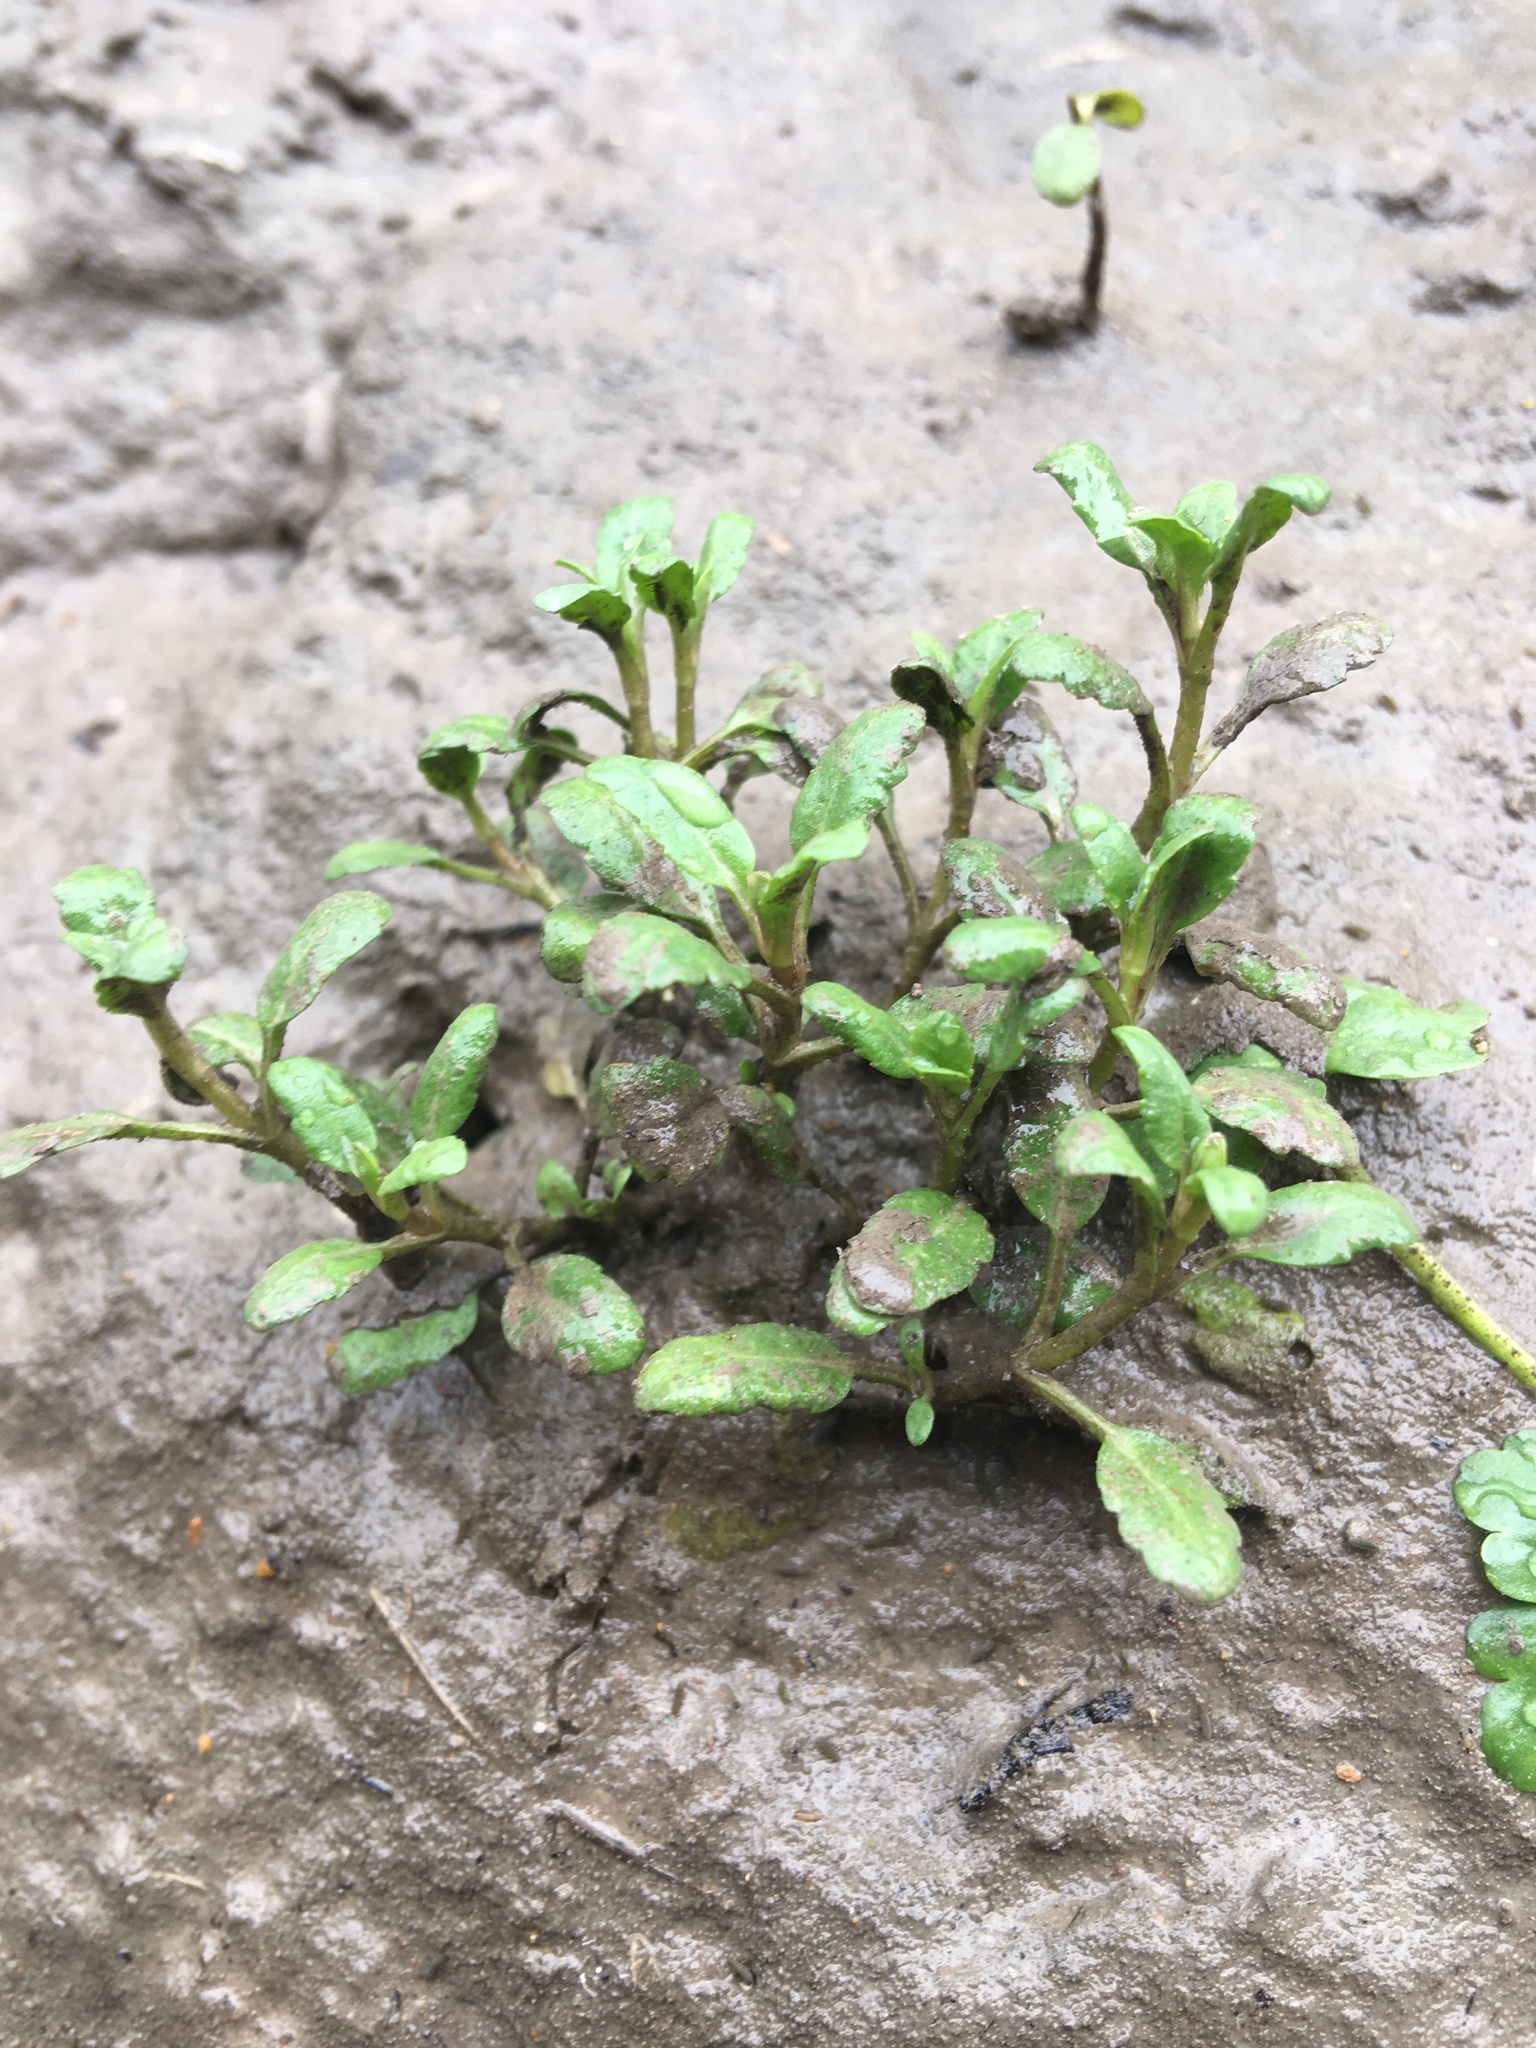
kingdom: Plantae
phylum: Tracheophyta
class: Magnoliopsida
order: Lamiales
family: Plantaginaceae
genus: Veronica
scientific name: Veronica peregrina
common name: Neckweed
